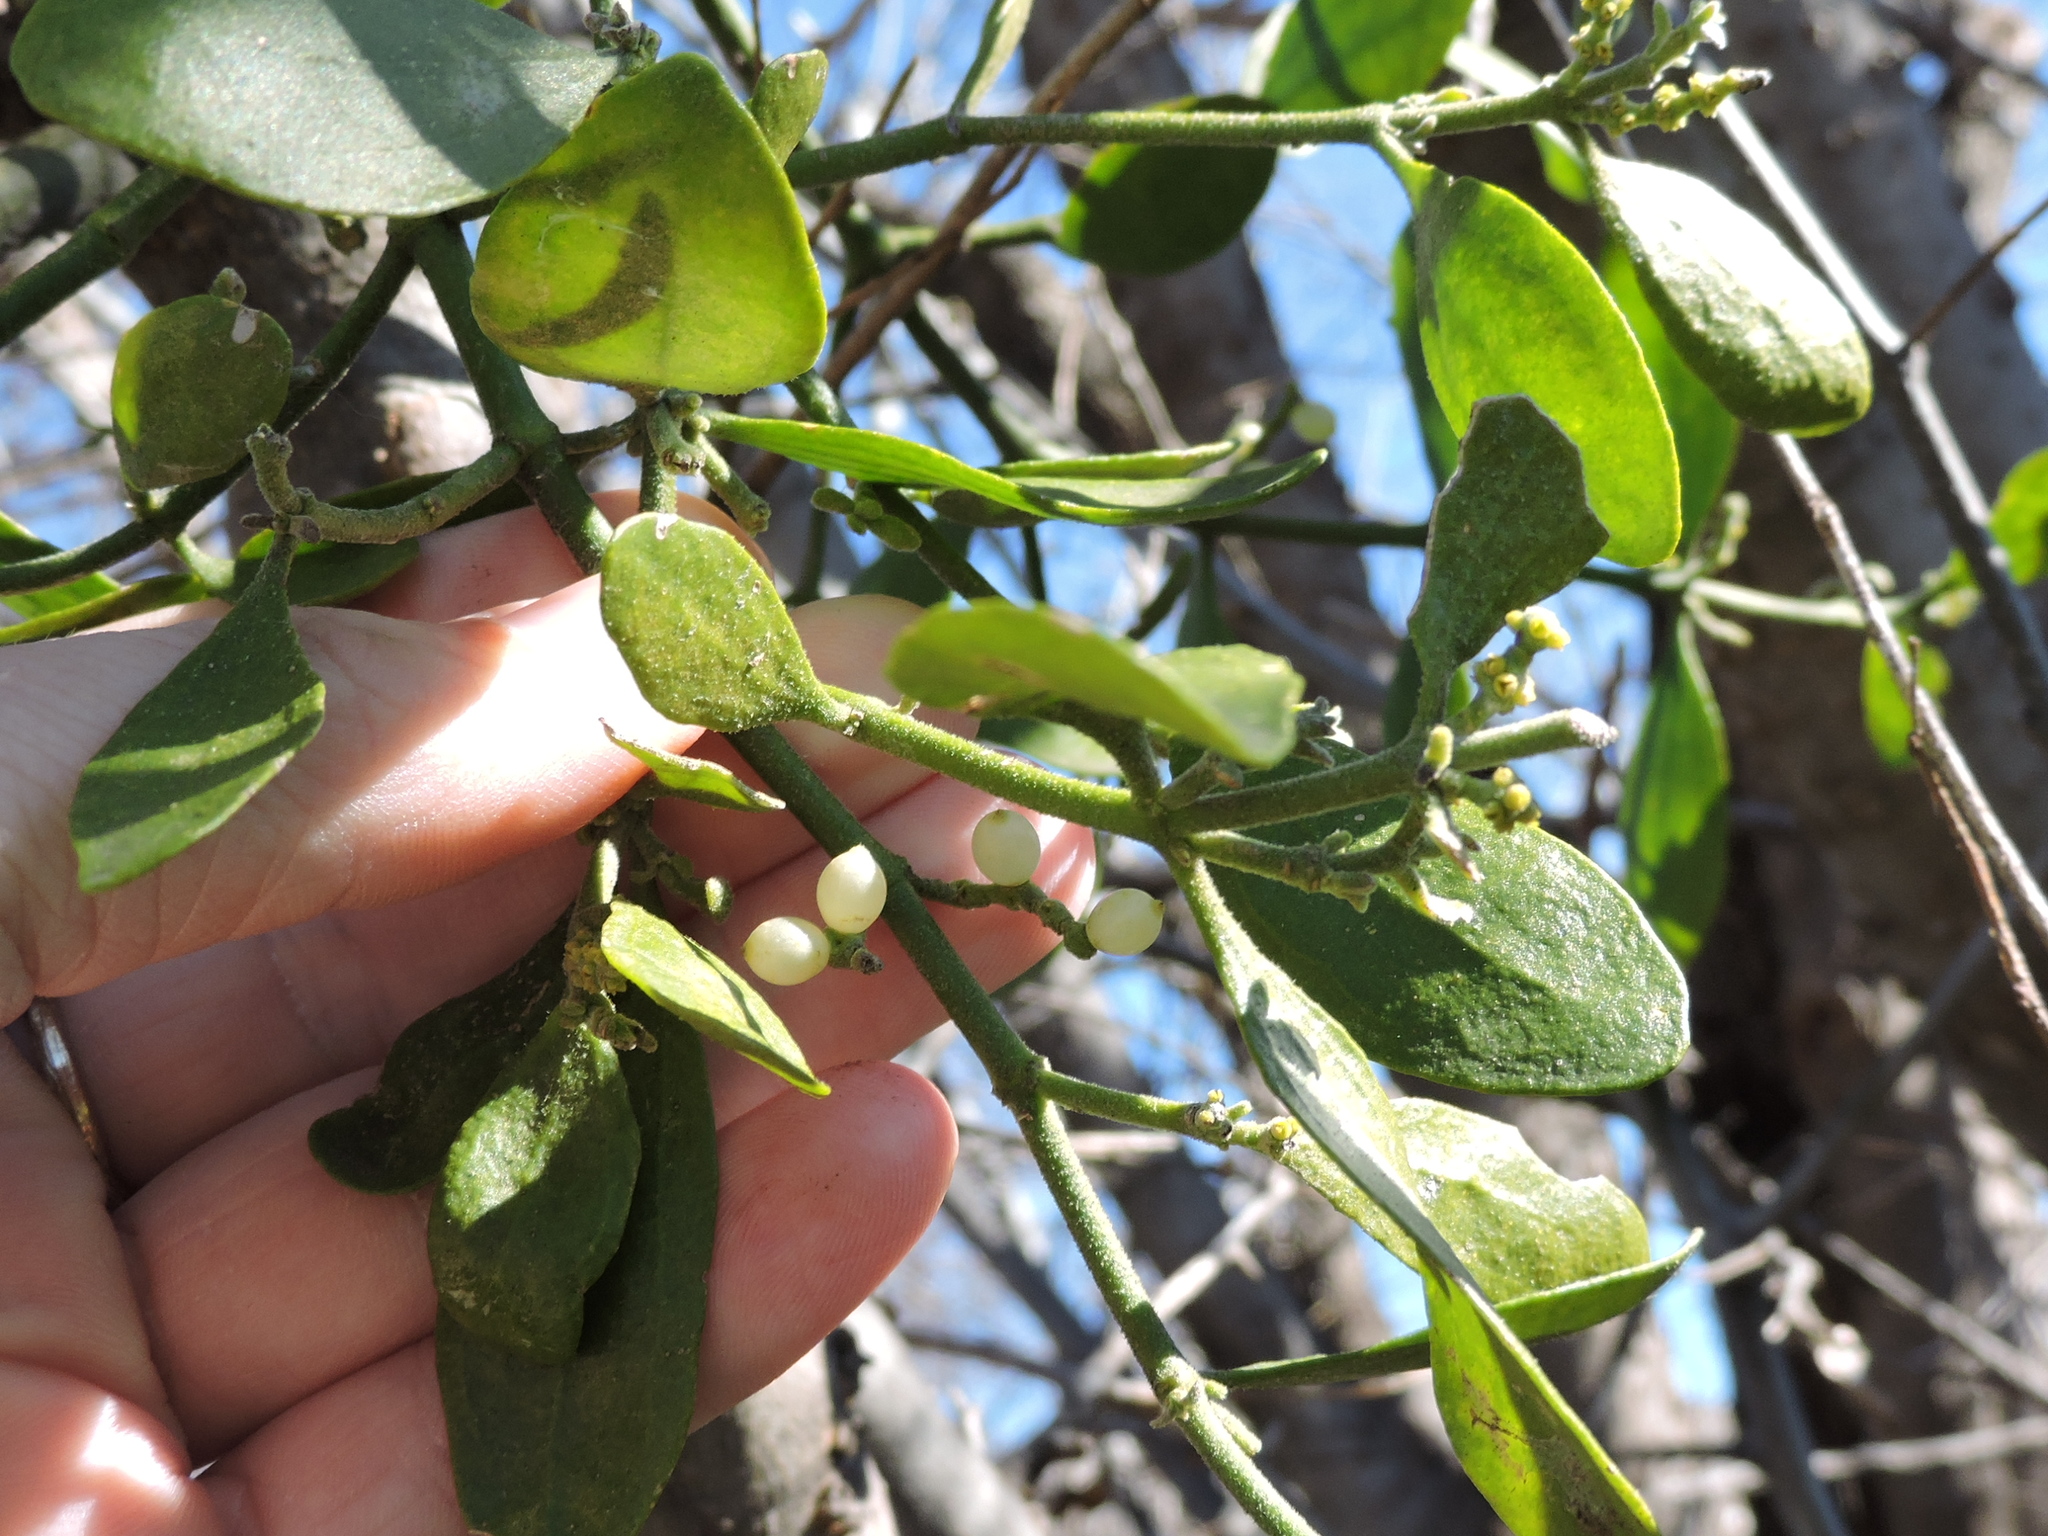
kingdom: Plantae
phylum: Tracheophyta
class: Magnoliopsida
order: Santalales
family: Viscaceae
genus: Phoradendron
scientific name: Phoradendron leucarpum
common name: Pacific mistletoe
